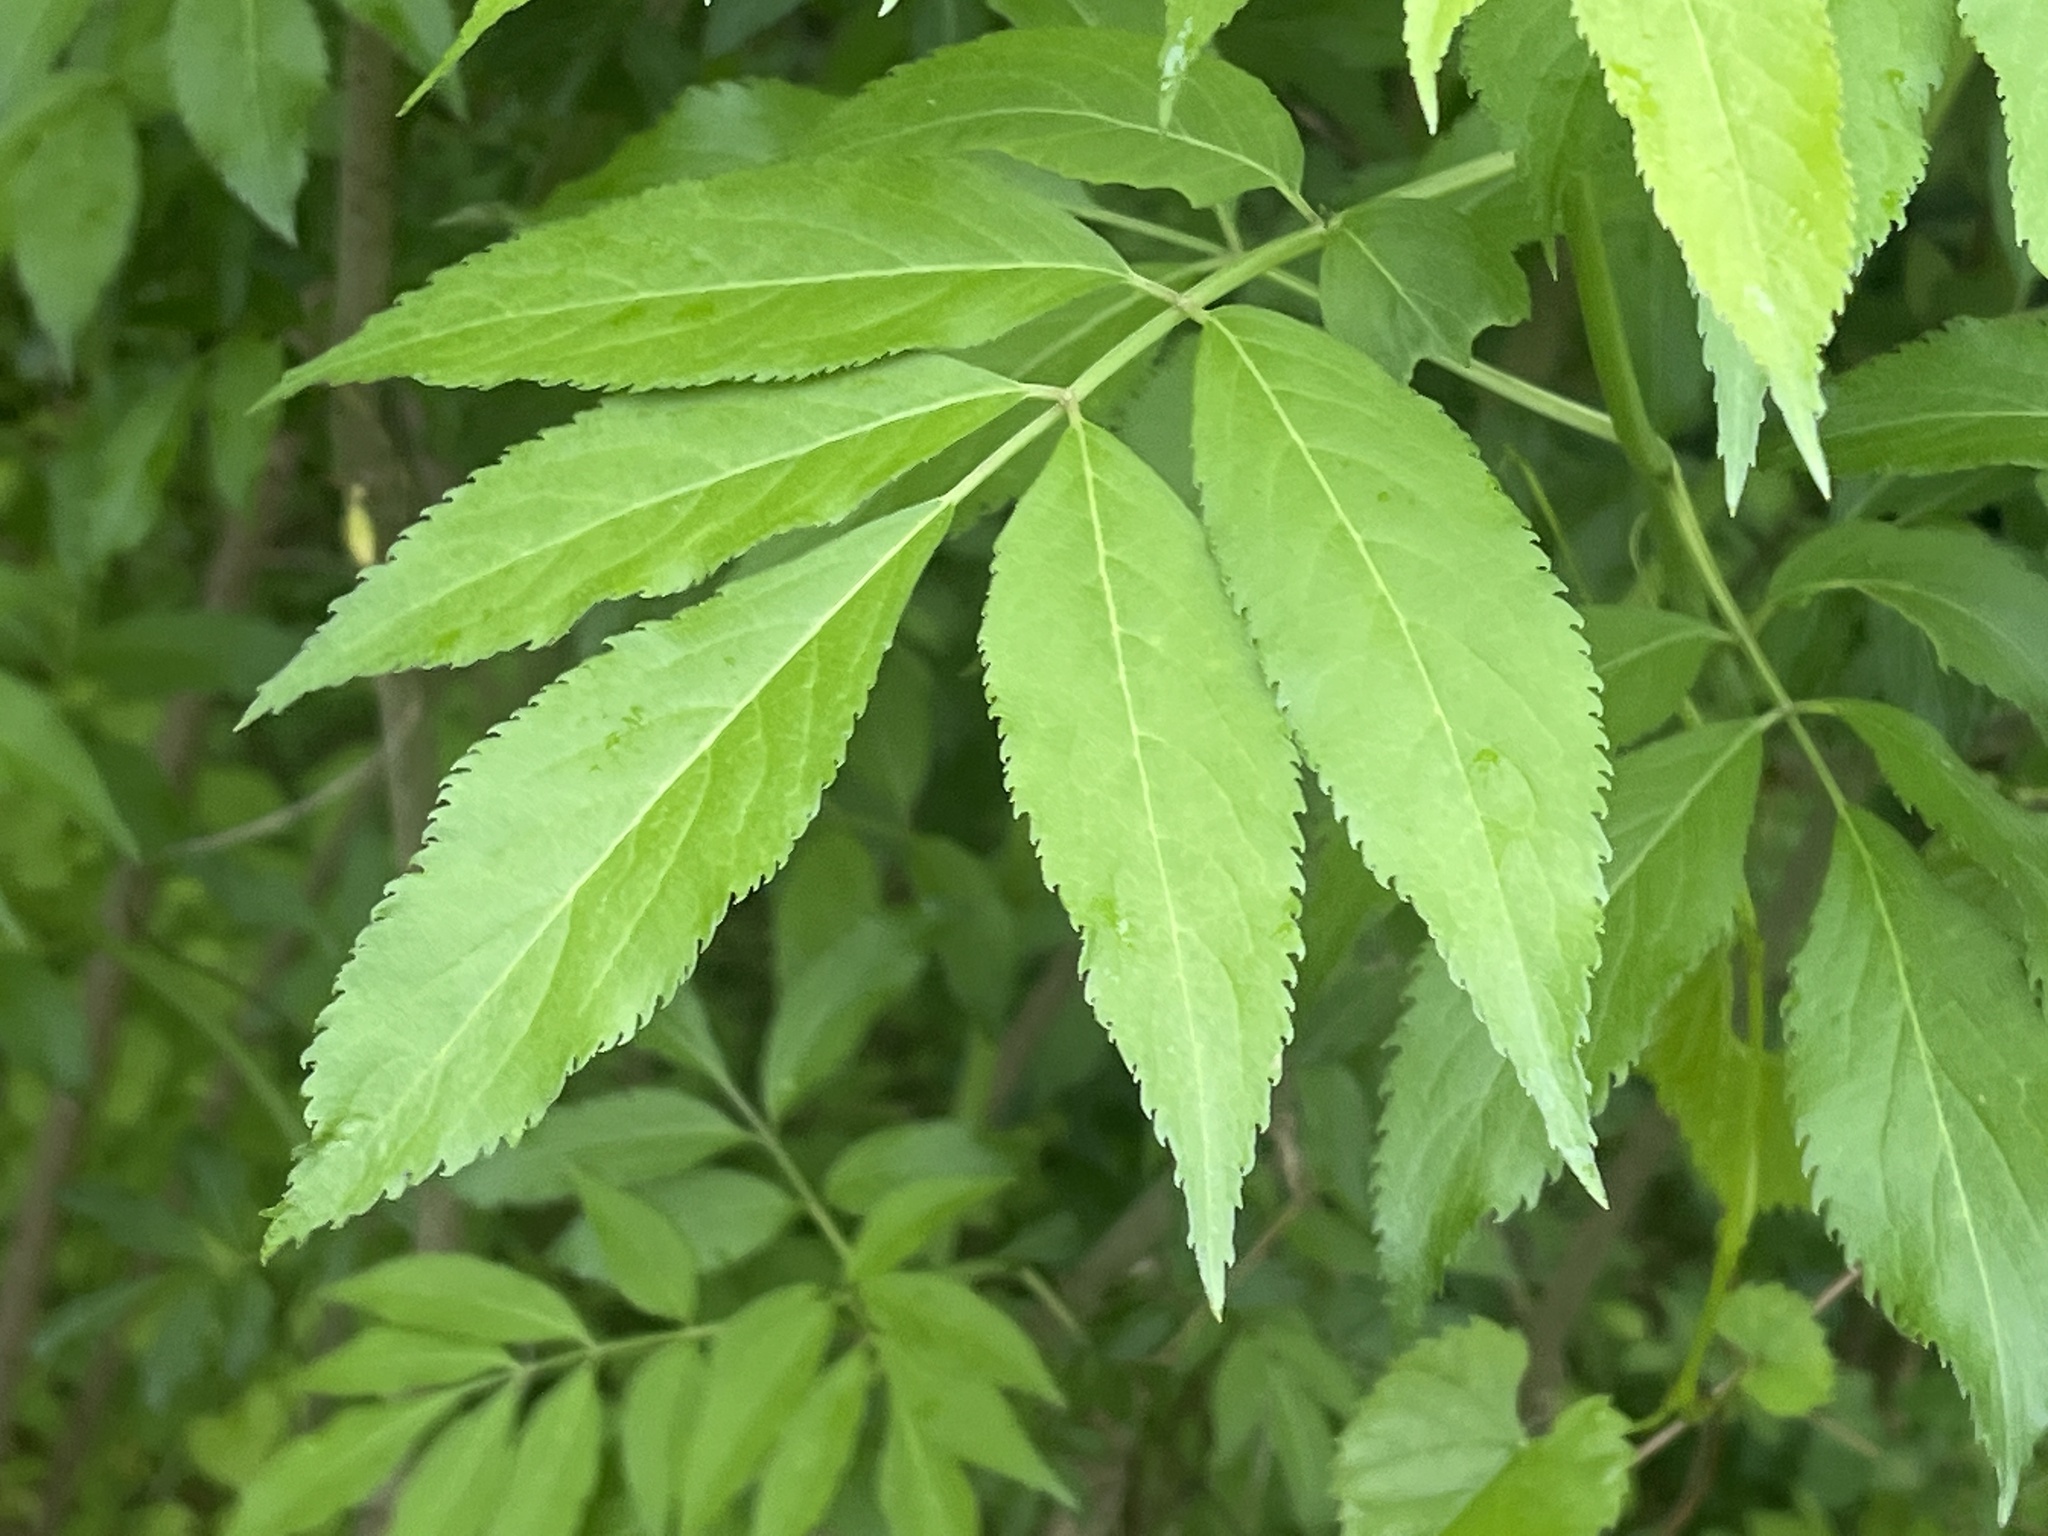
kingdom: Plantae
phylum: Tracheophyta
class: Magnoliopsida
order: Dipsacales
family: Viburnaceae
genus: Sambucus
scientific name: Sambucus canadensis
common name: American elder
